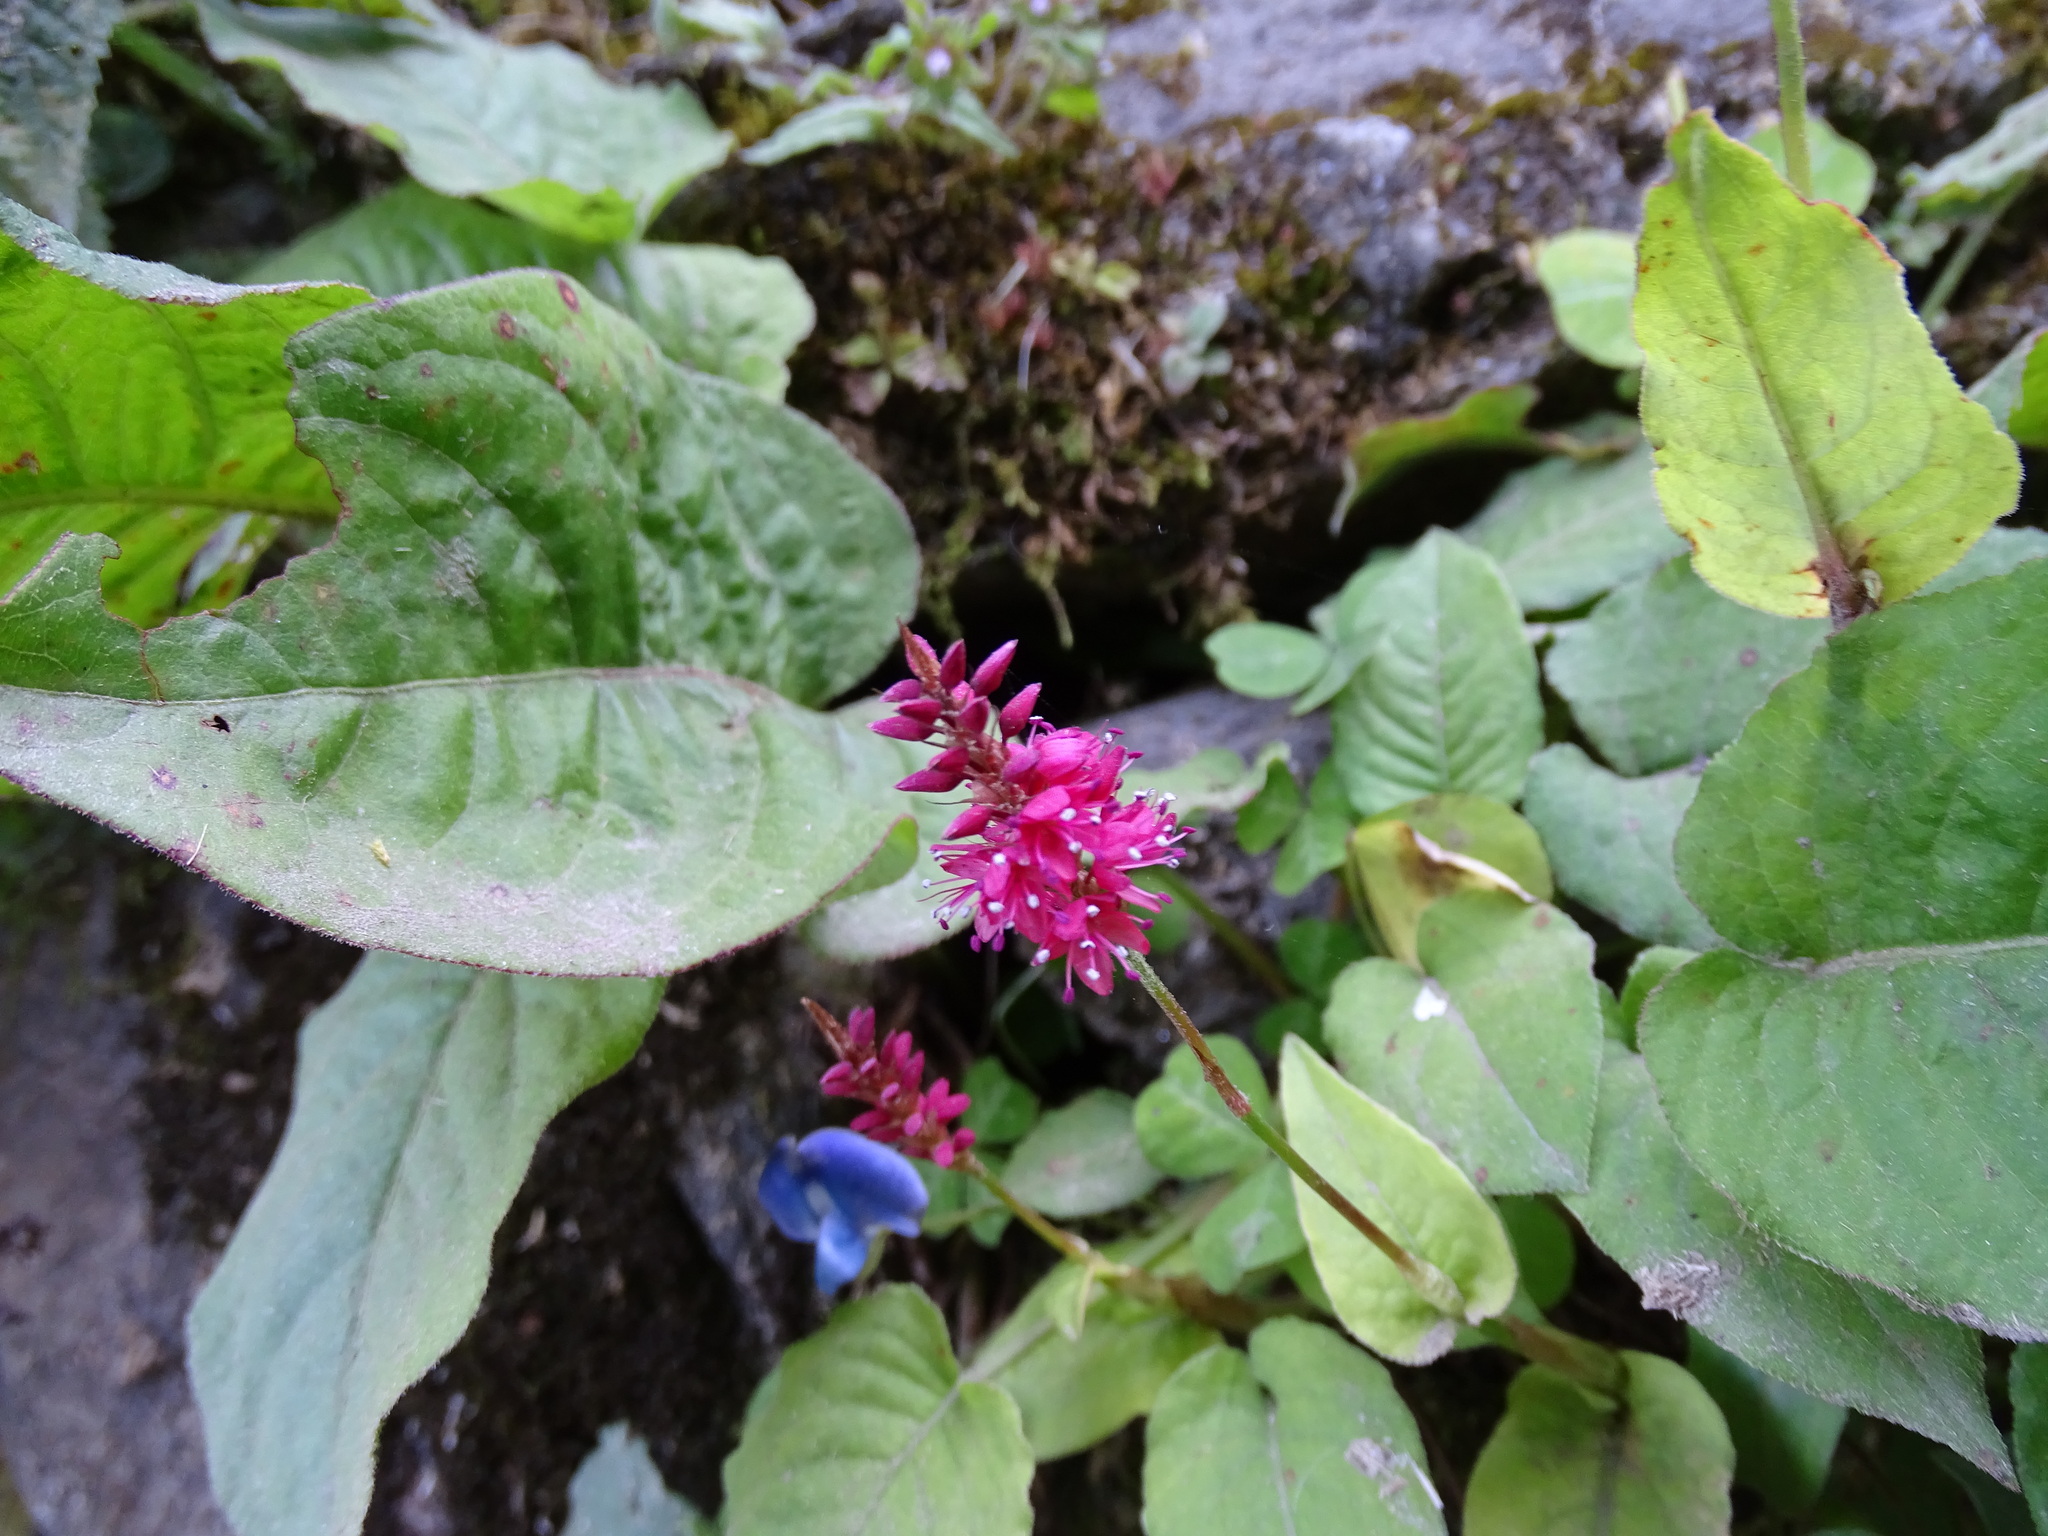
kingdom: Plantae
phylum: Tracheophyta
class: Magnoliopsida
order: Caryophyllales
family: Polygonaceae
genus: Bistorta
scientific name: Bistorta amplexicaulis
